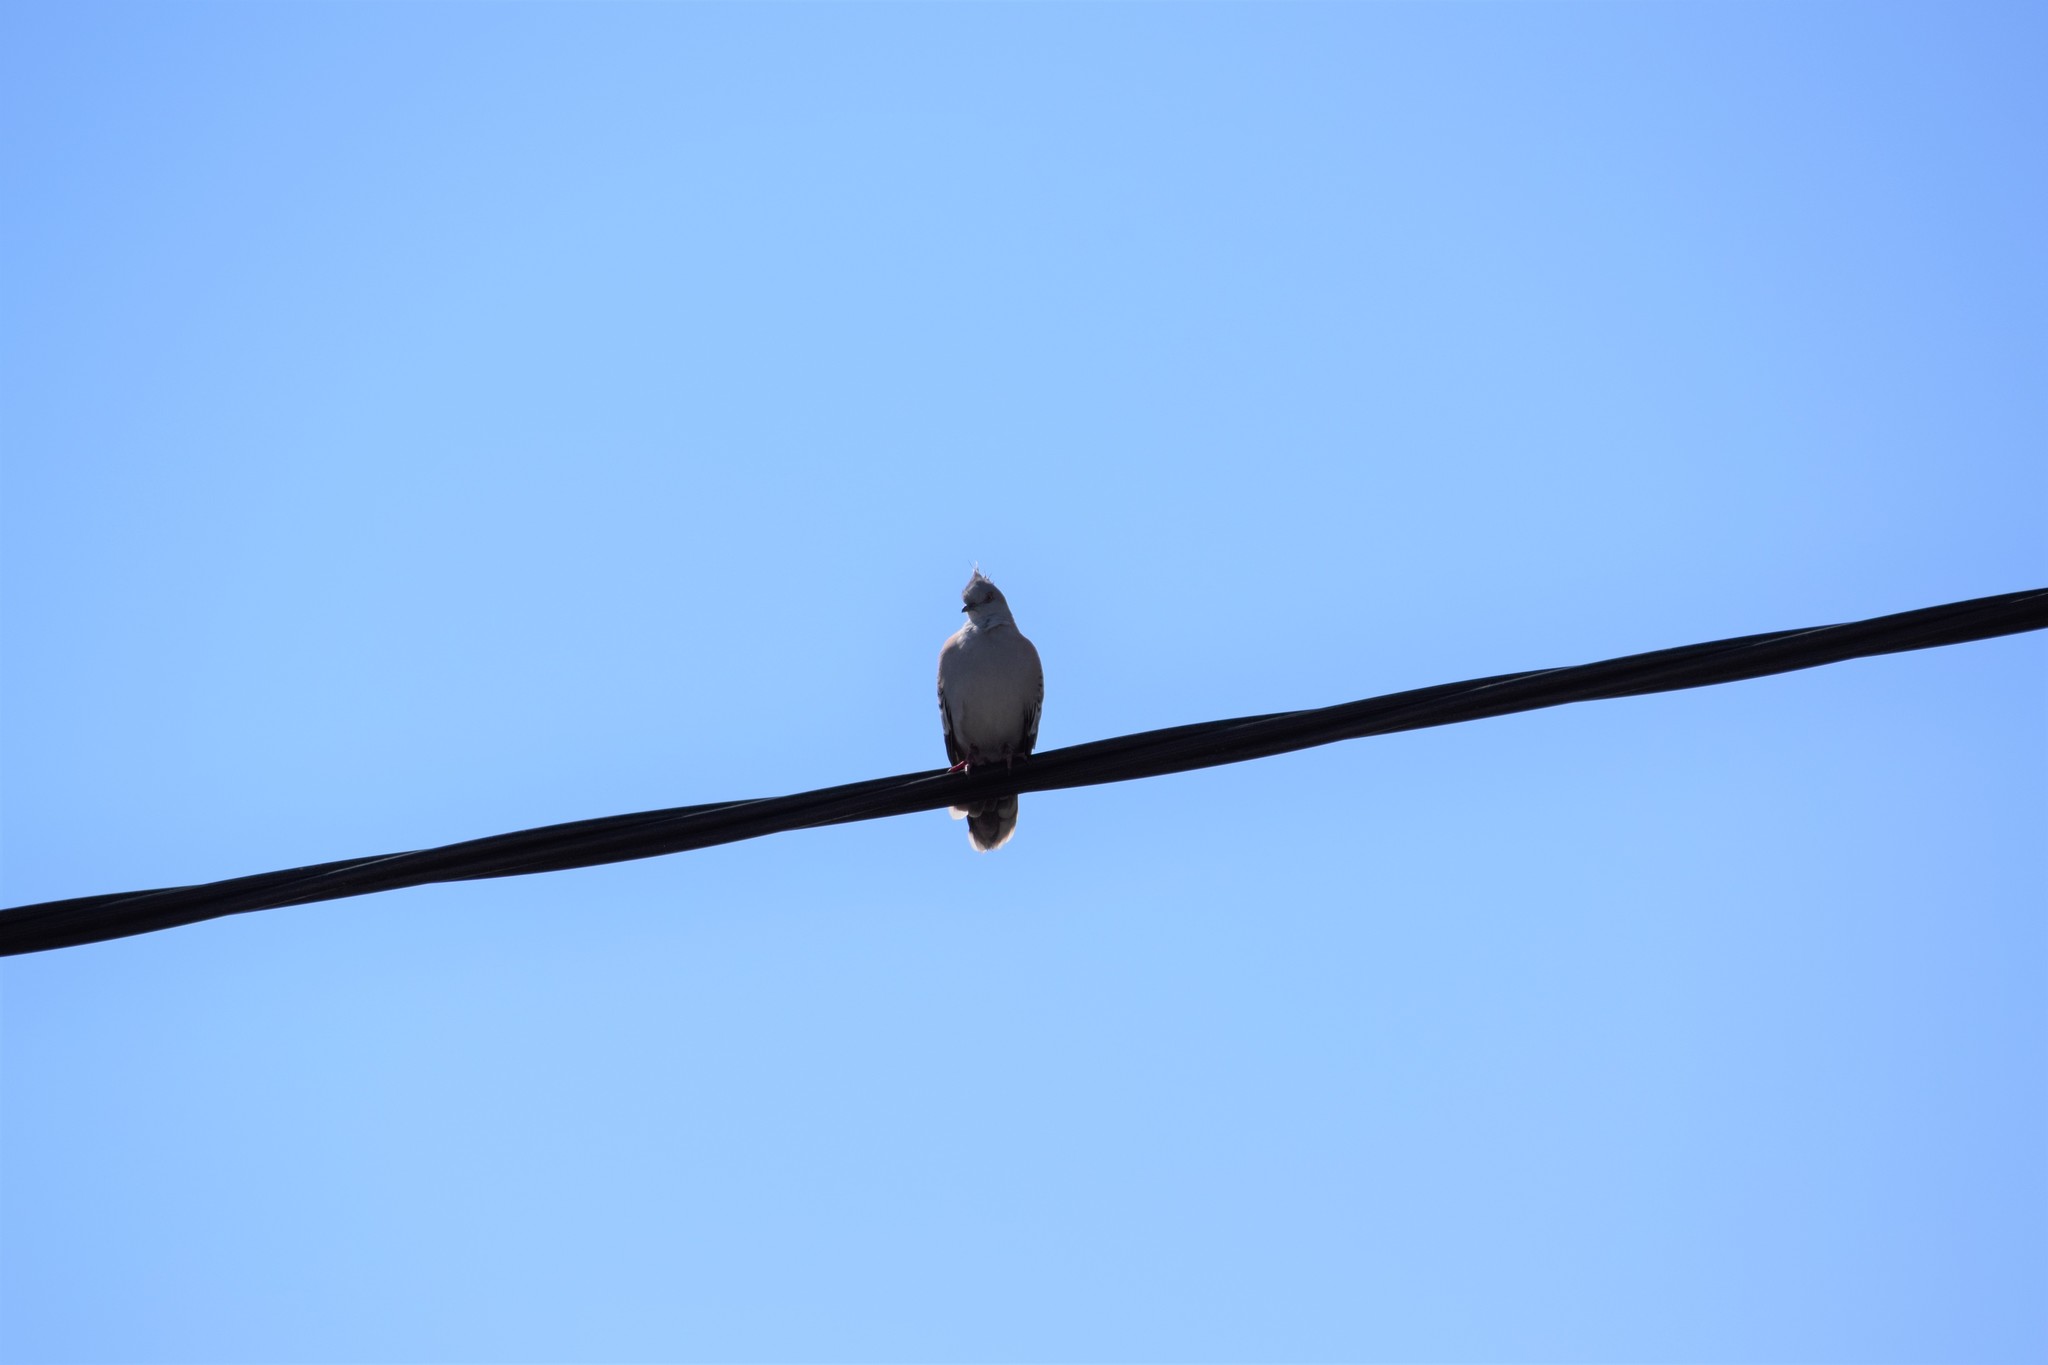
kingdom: Animalia
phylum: Chordata
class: Aves
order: Columbiformes
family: Columbidae
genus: Ocyphaps
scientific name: Ocyphaps lophotes
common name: Crested pigeon
